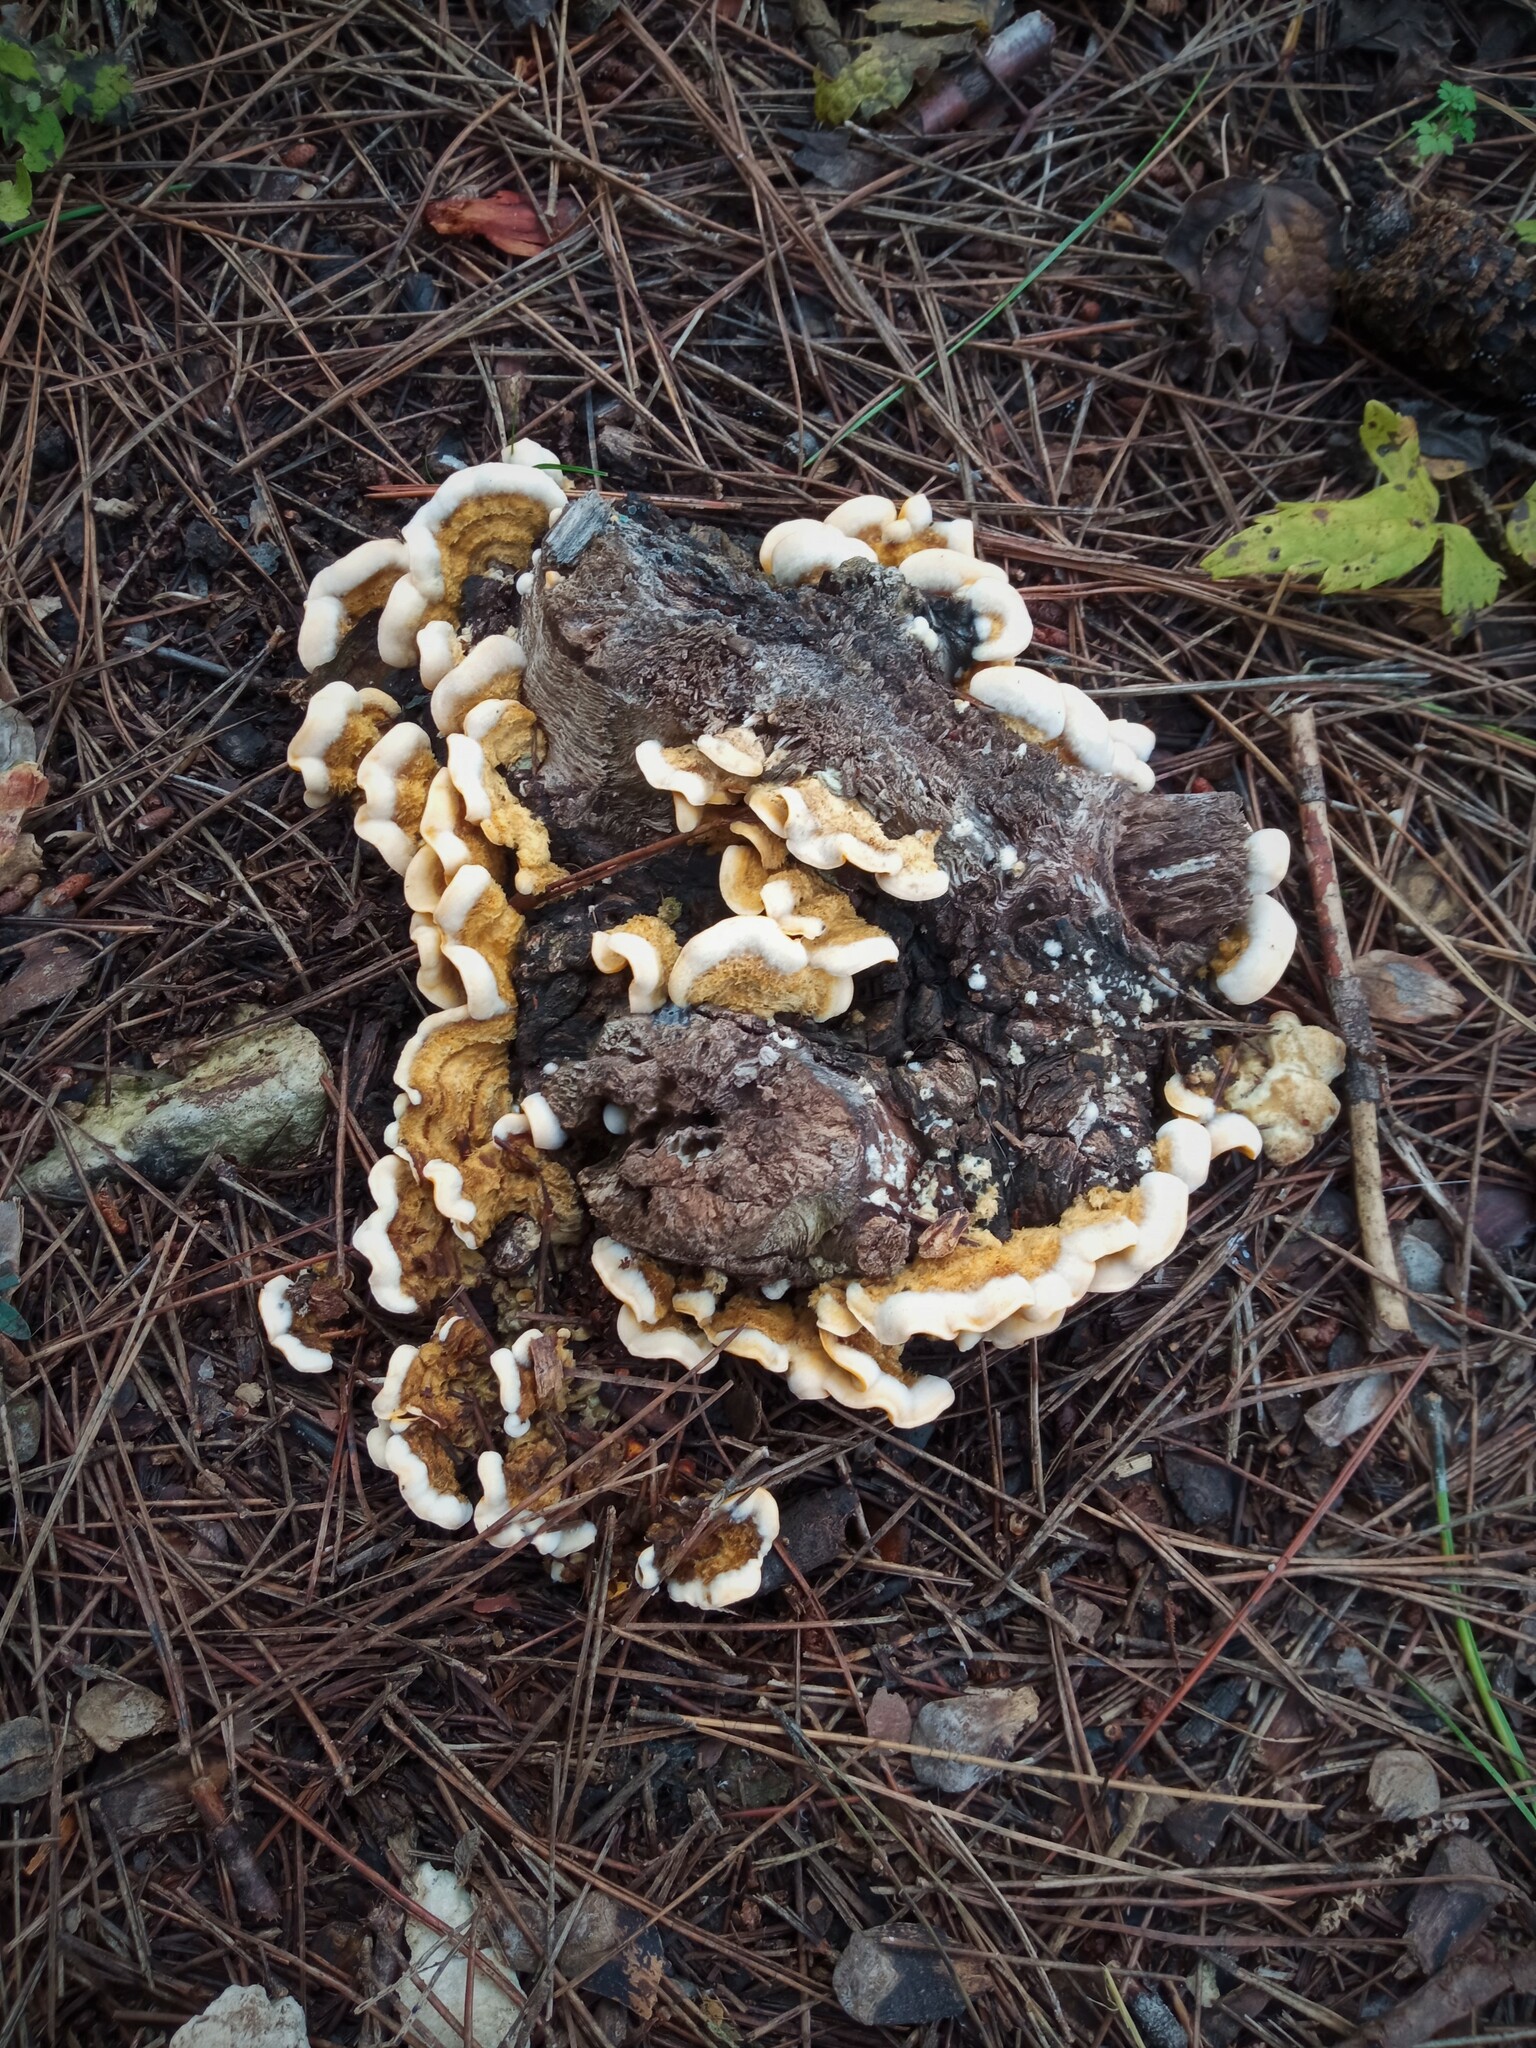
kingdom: Fungi
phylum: Basidiomycota
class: Agaricomycetes
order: Russulales
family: Stereaceae
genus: Stereum
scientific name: Stereum hirsutum
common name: Hairy curtain crust
